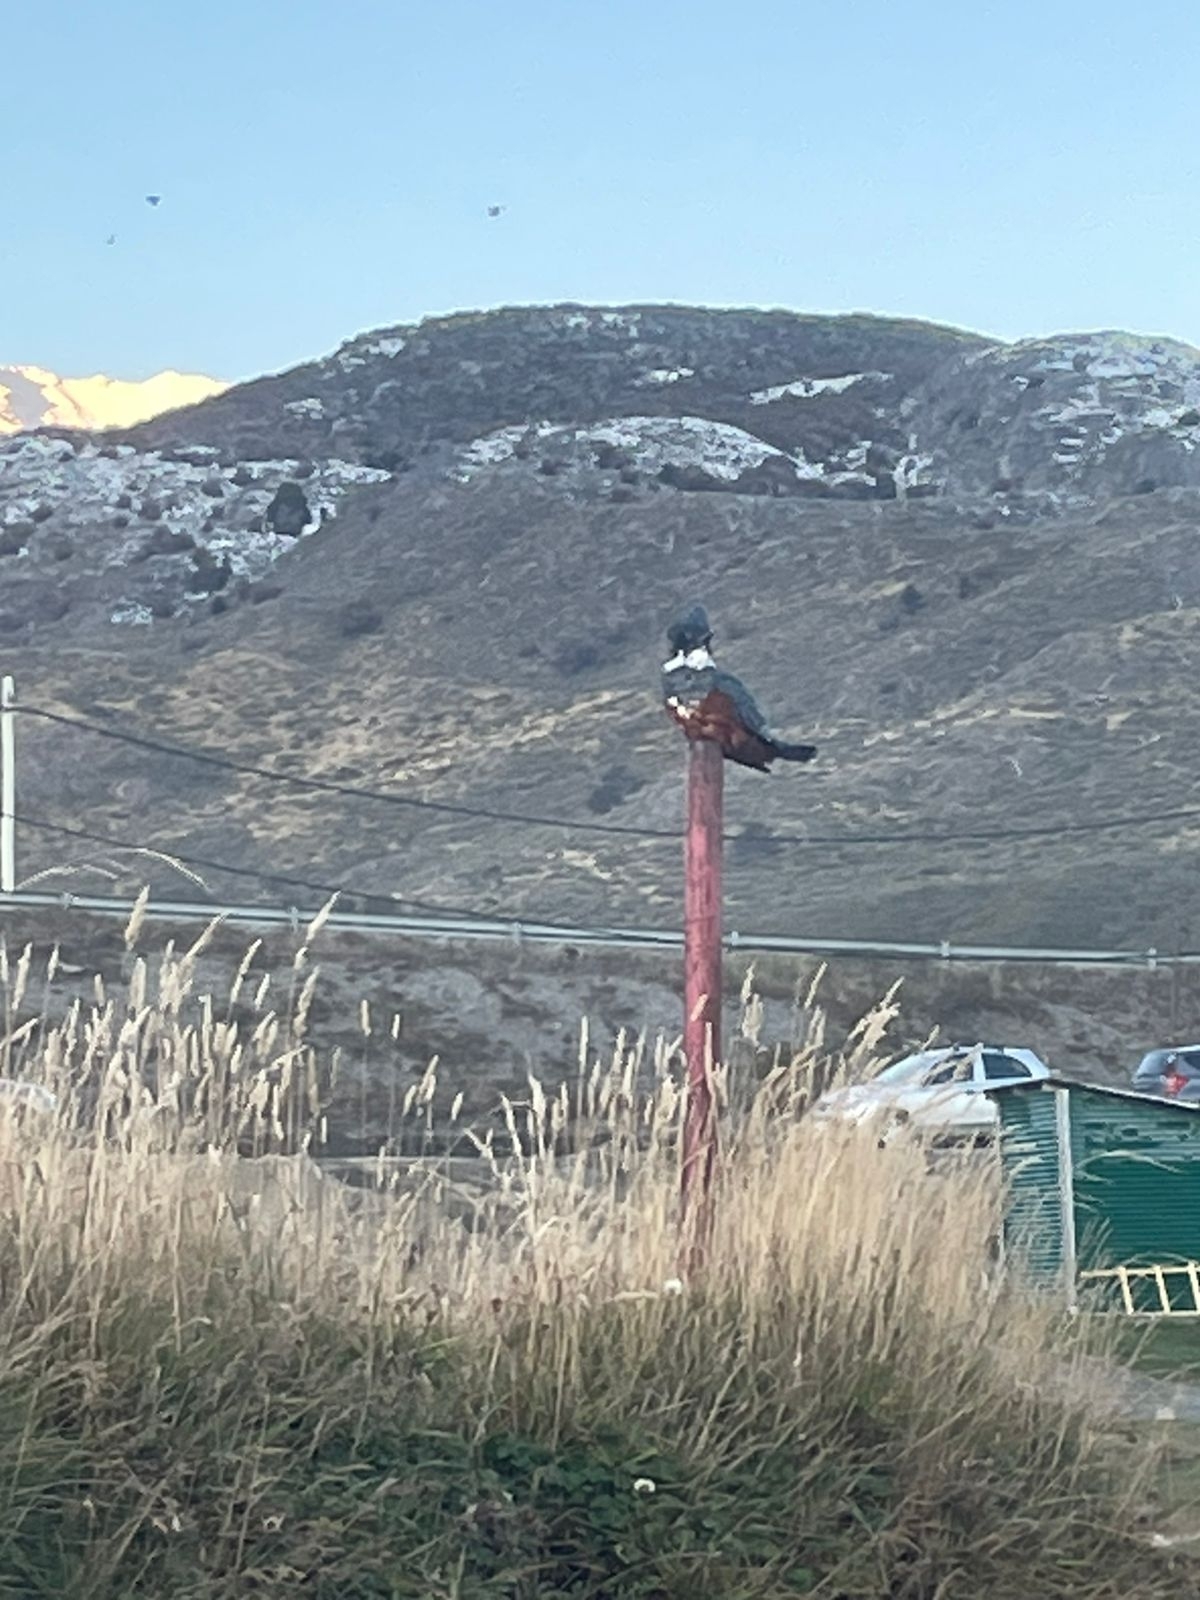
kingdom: Animalia
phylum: Chordata
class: Aves
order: Coraciiformes
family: Alcedinidae
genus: Megaceryle
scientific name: Megaceryle torquata
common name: Ringed kingfisher
